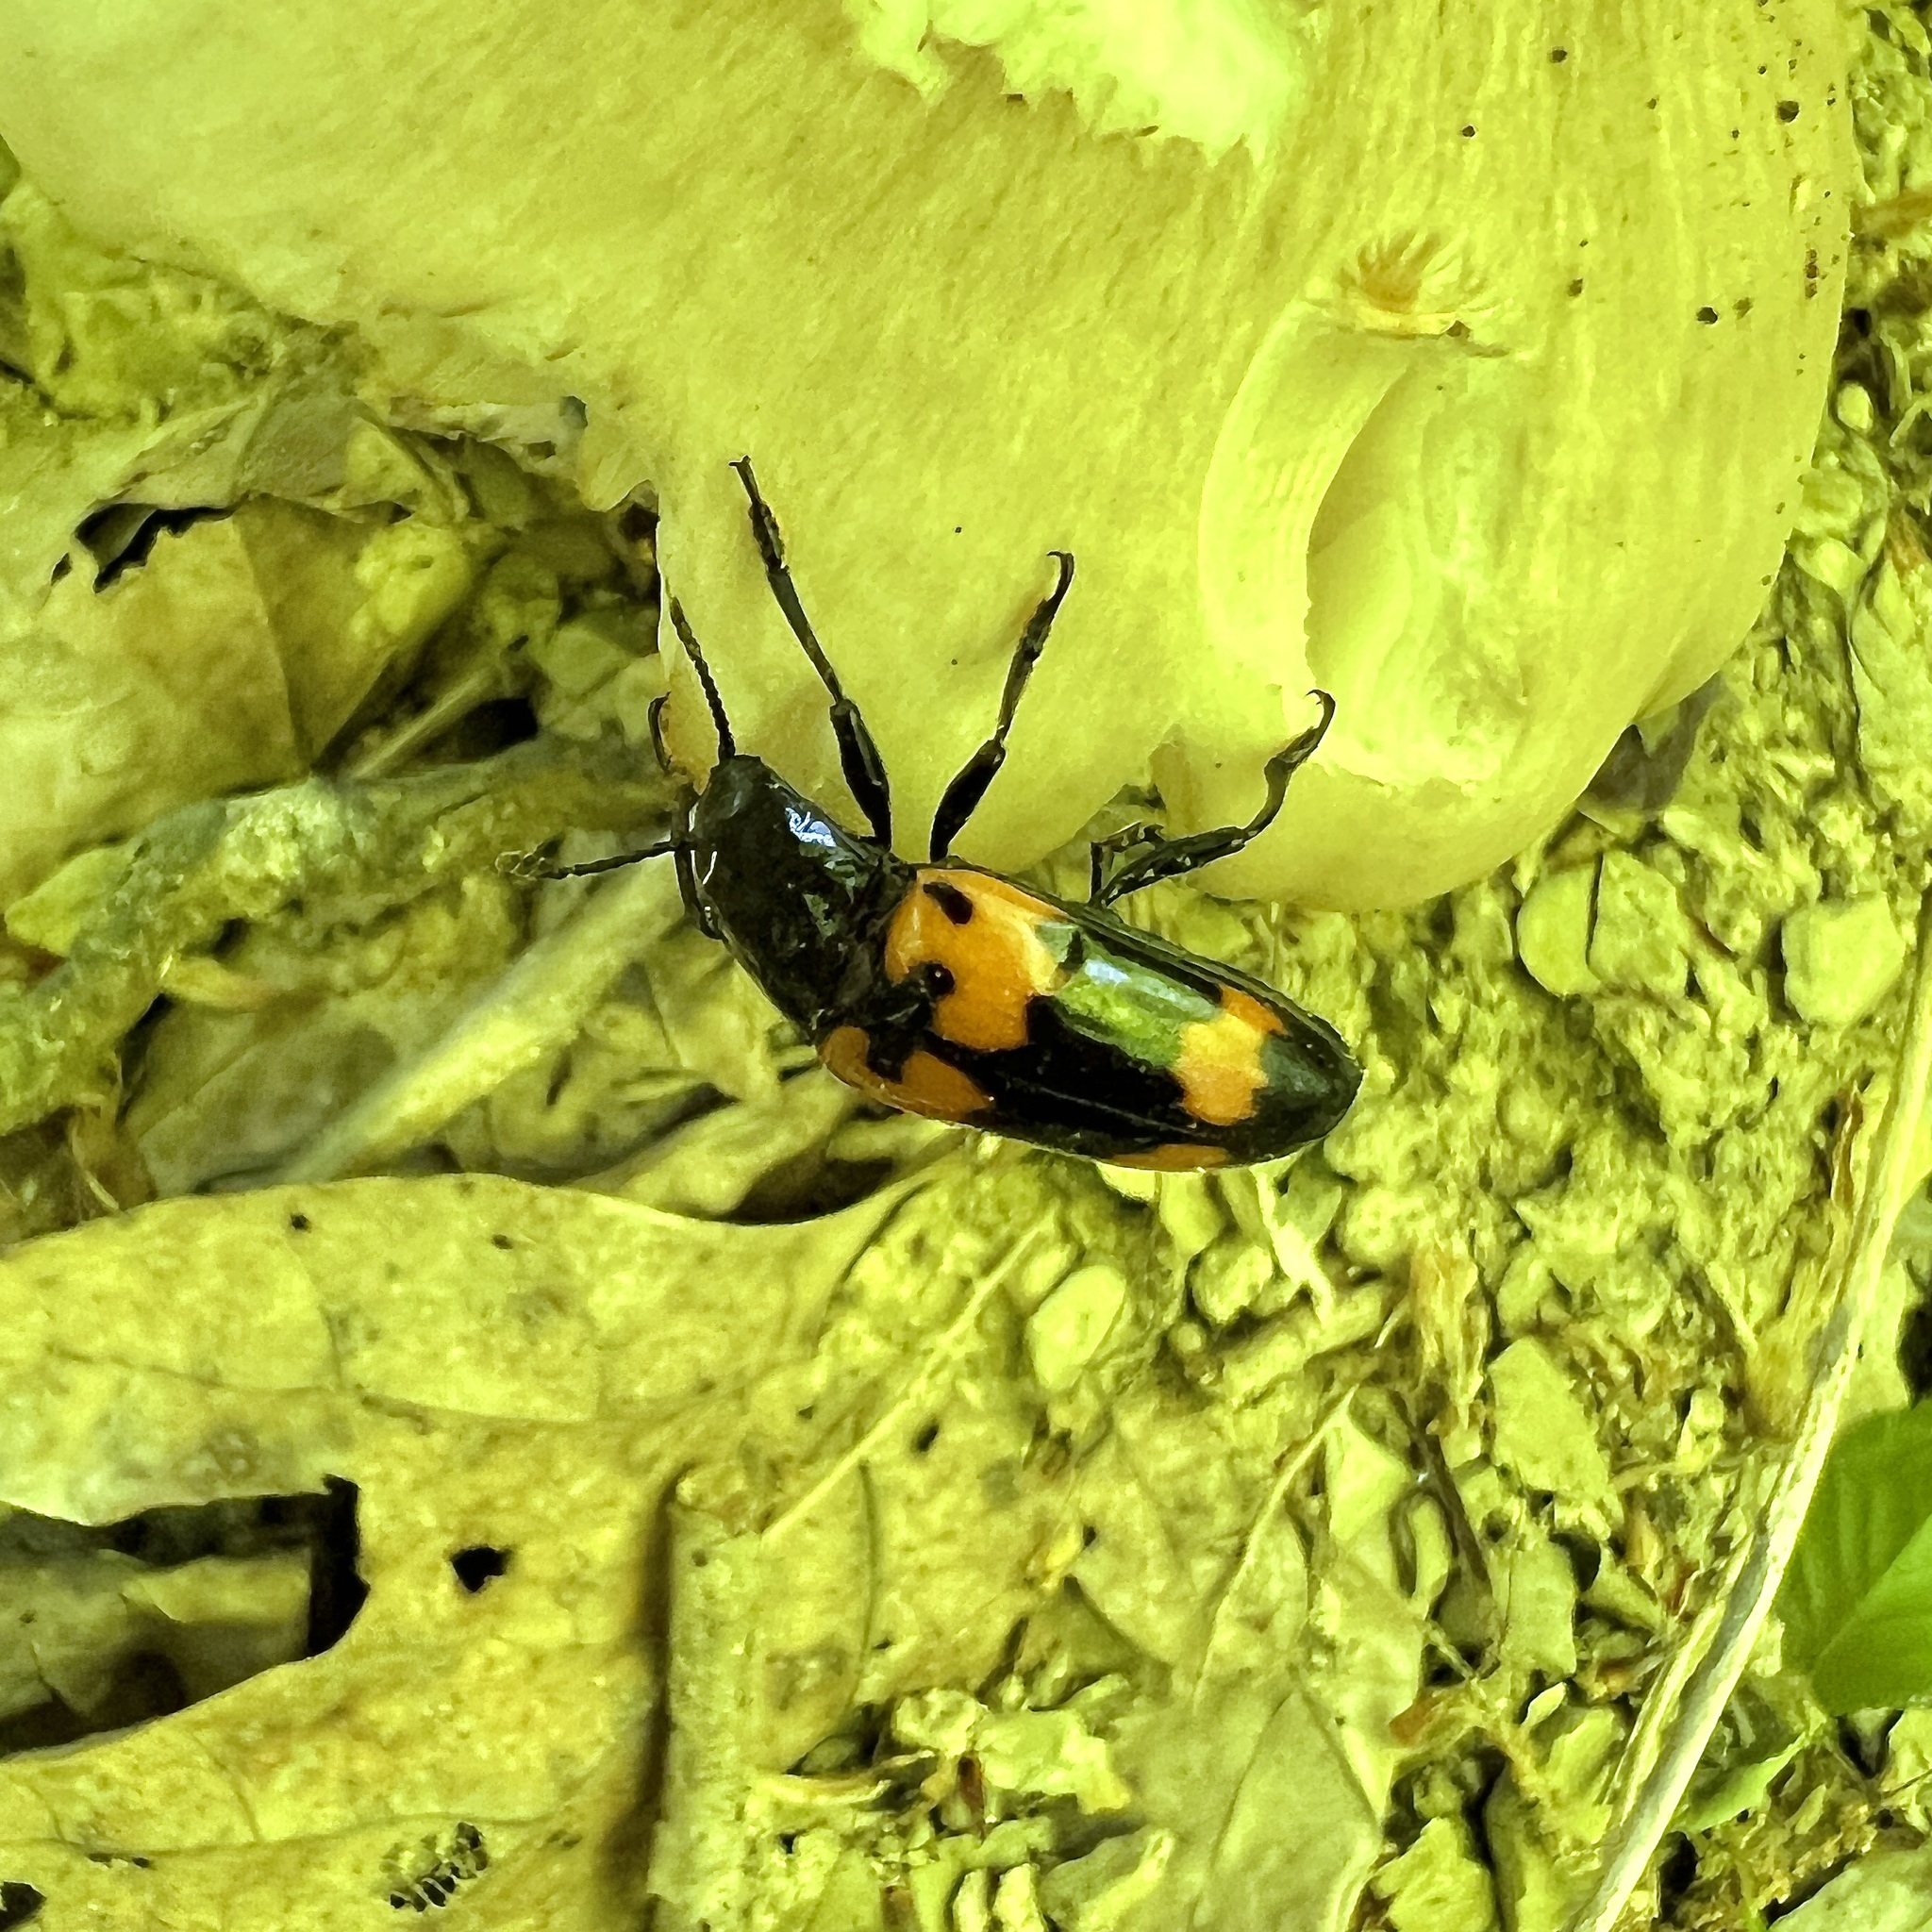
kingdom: Animalia
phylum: Arthropoda
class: Insecta
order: Coleoptera
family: Erotylidae
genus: Megalodacne
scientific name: Megalodacne heros
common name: Pleasing fungus beetle
